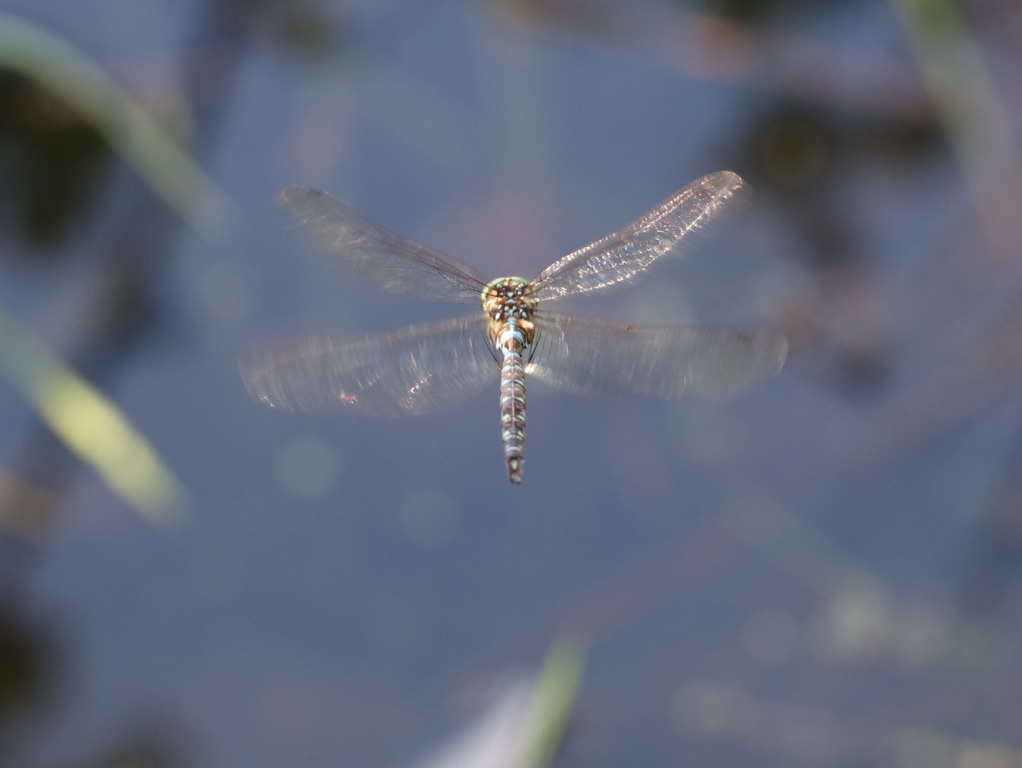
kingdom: Animalia
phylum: Arthropoda
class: Insecta
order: Odonata
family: Aeshnidae
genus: Aeshna
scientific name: Aeshna umbrosa
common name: Shadow darner
